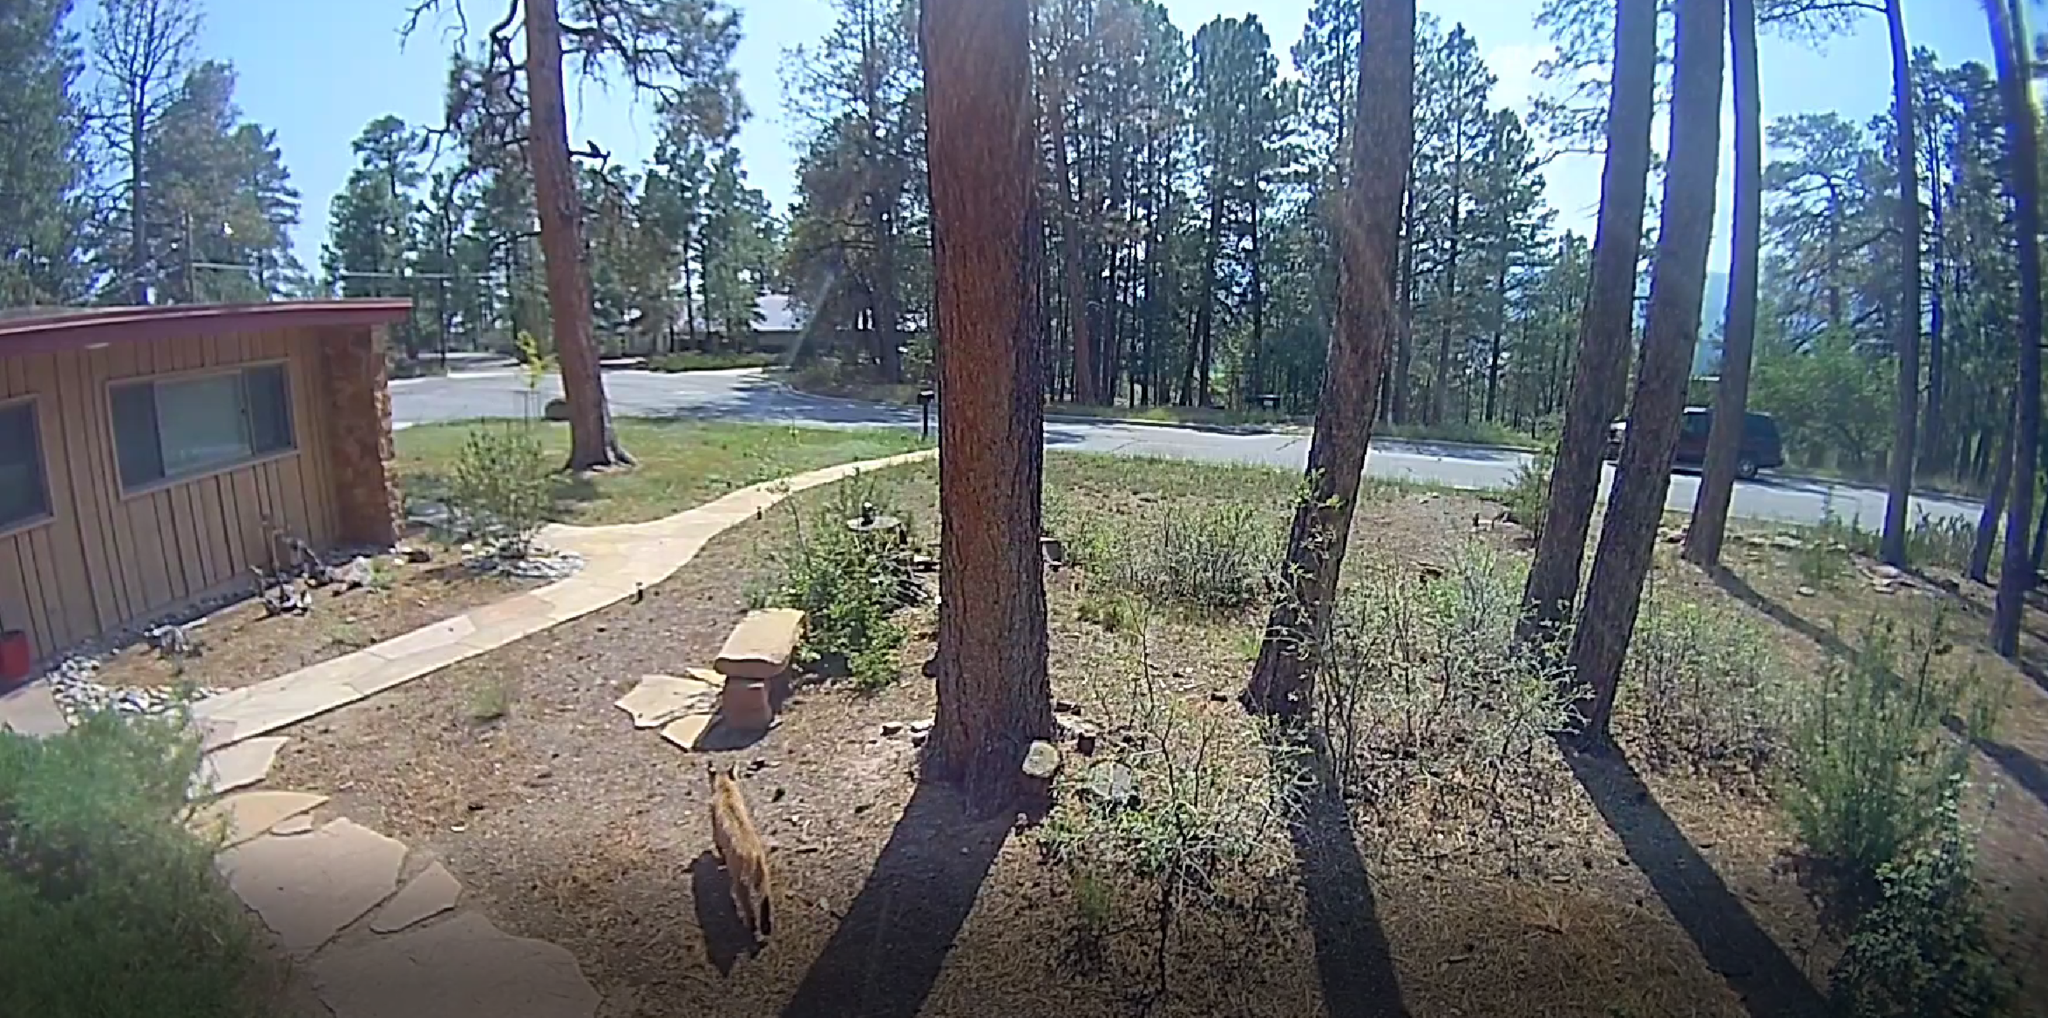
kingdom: Animalia
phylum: Chordata
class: Mammalia
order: Carnivora
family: Felidae
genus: Lynx
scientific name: Lynx rufus
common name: Bobcat
